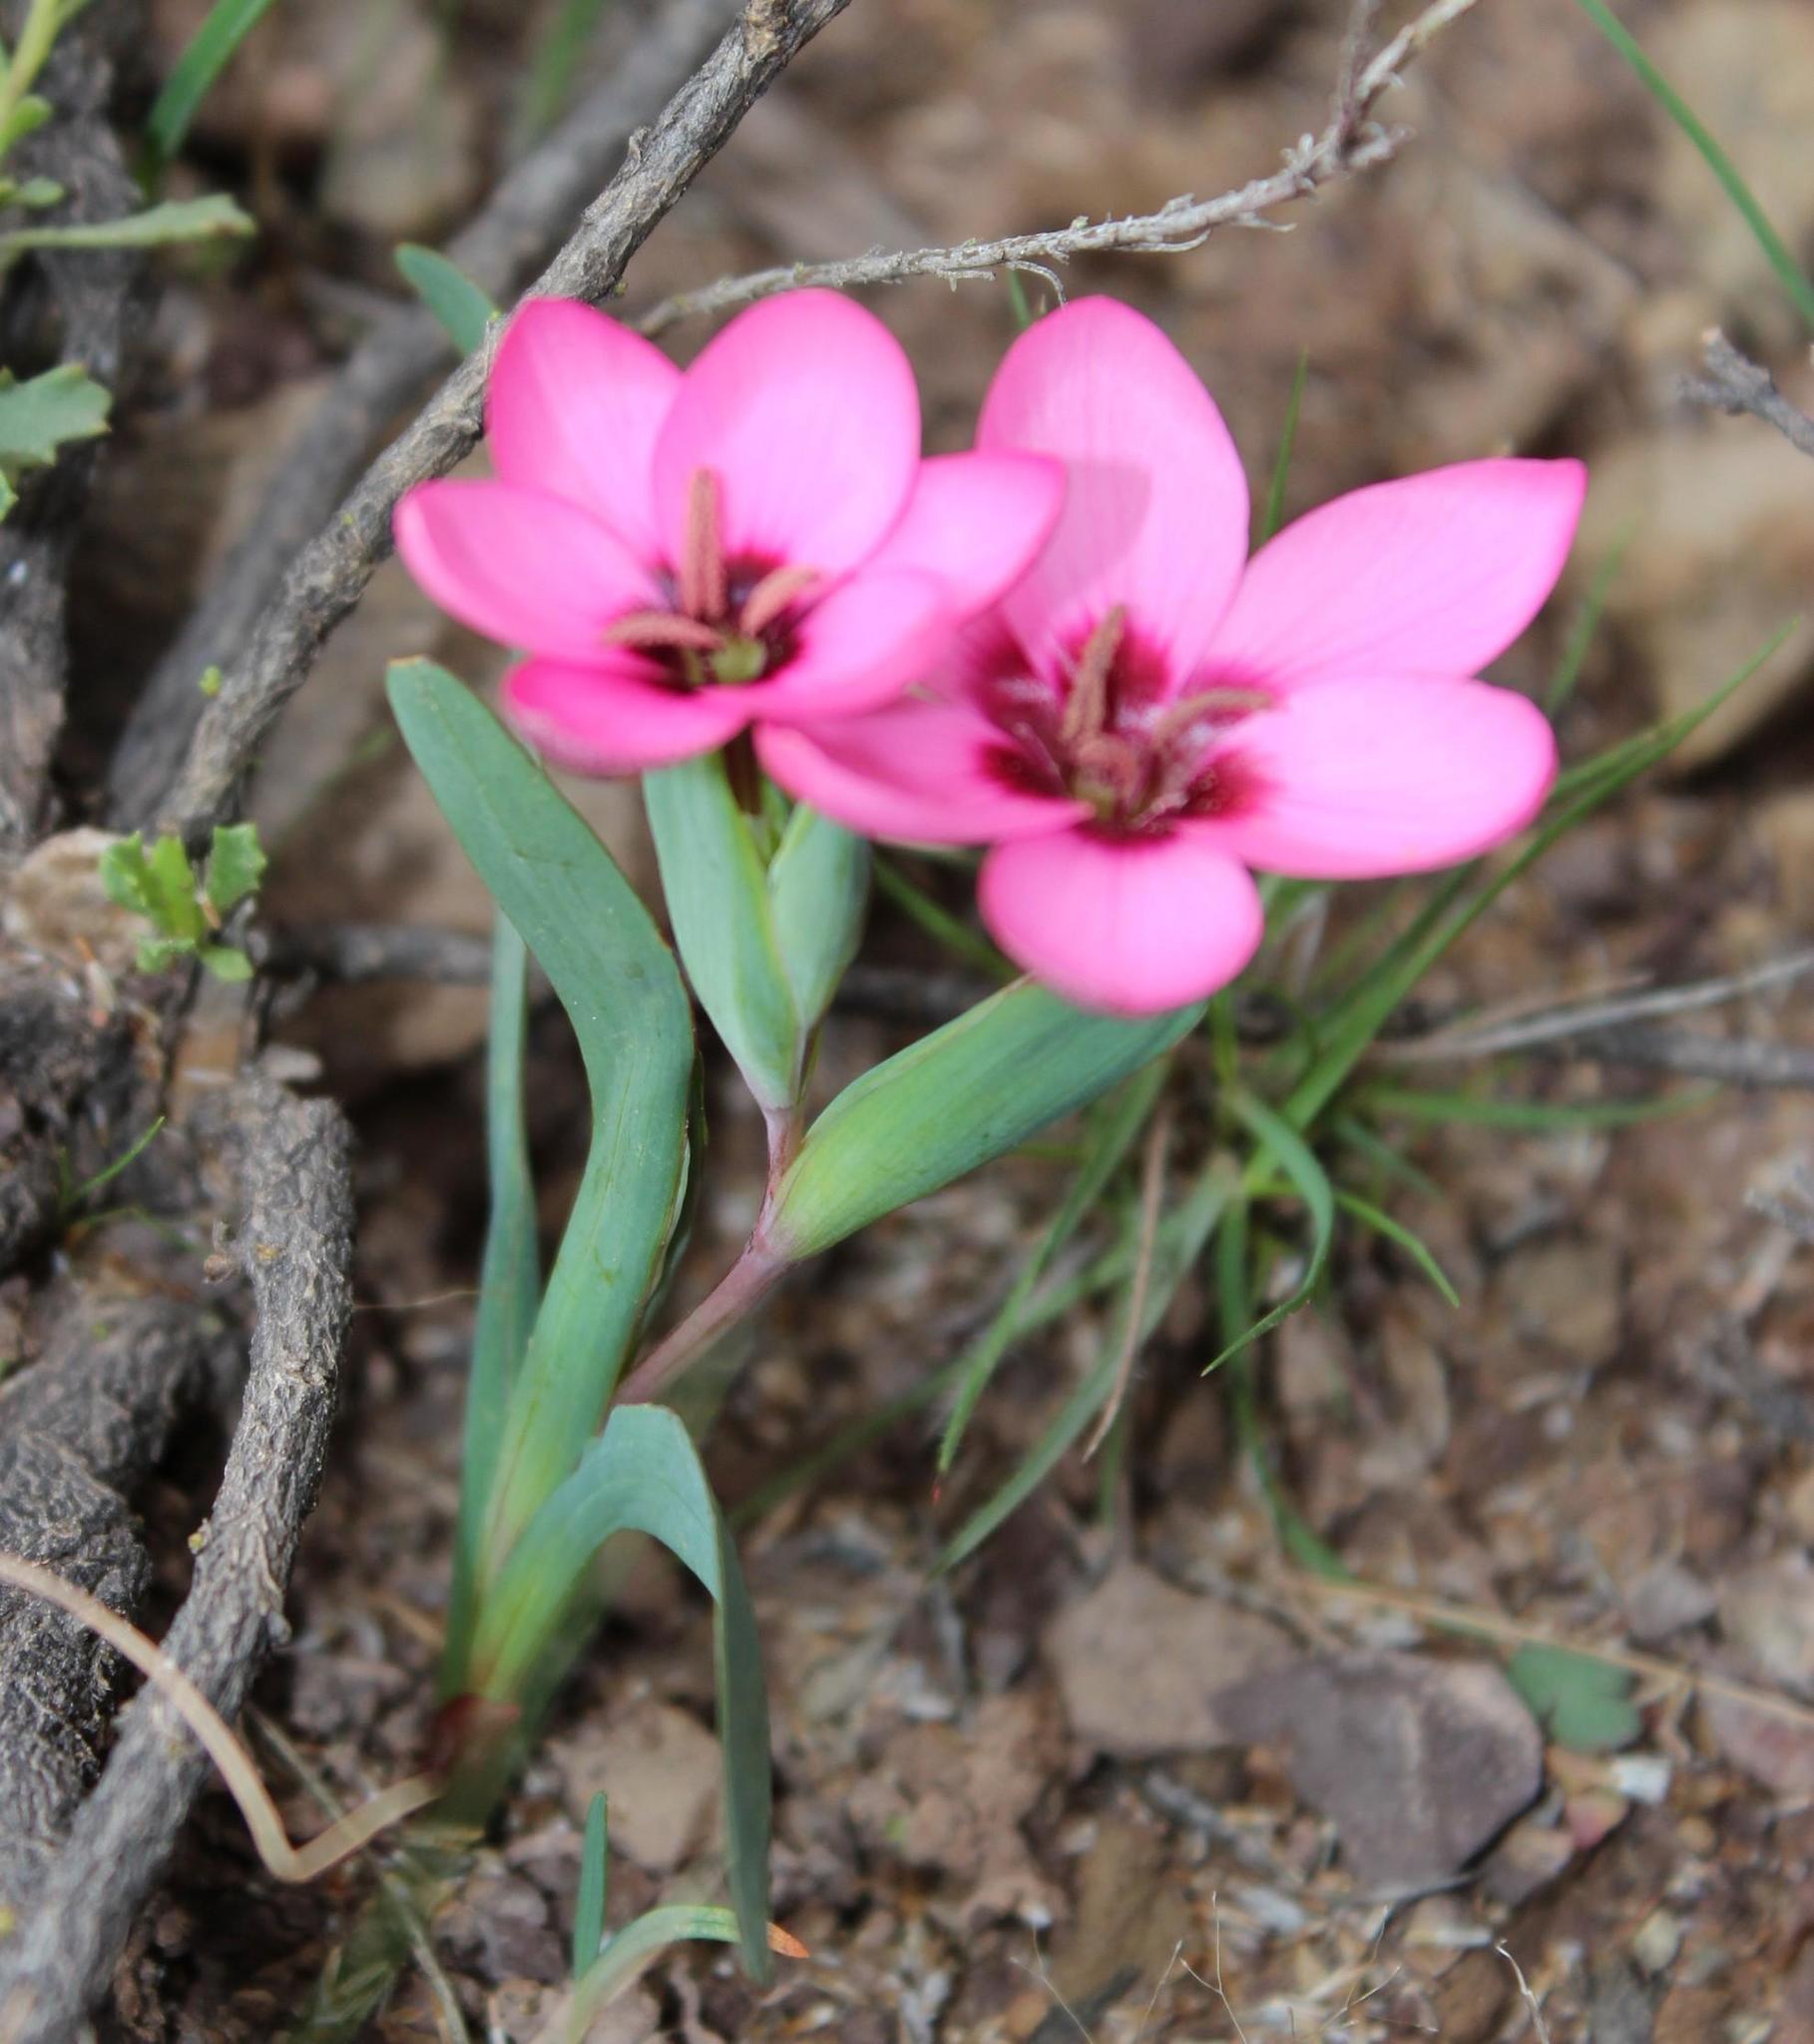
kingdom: Plantae
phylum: Tracheophyta
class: Liliopsida
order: Asparagales
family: Iridaceae
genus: Hesperantha
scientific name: Hesperantha humilis
